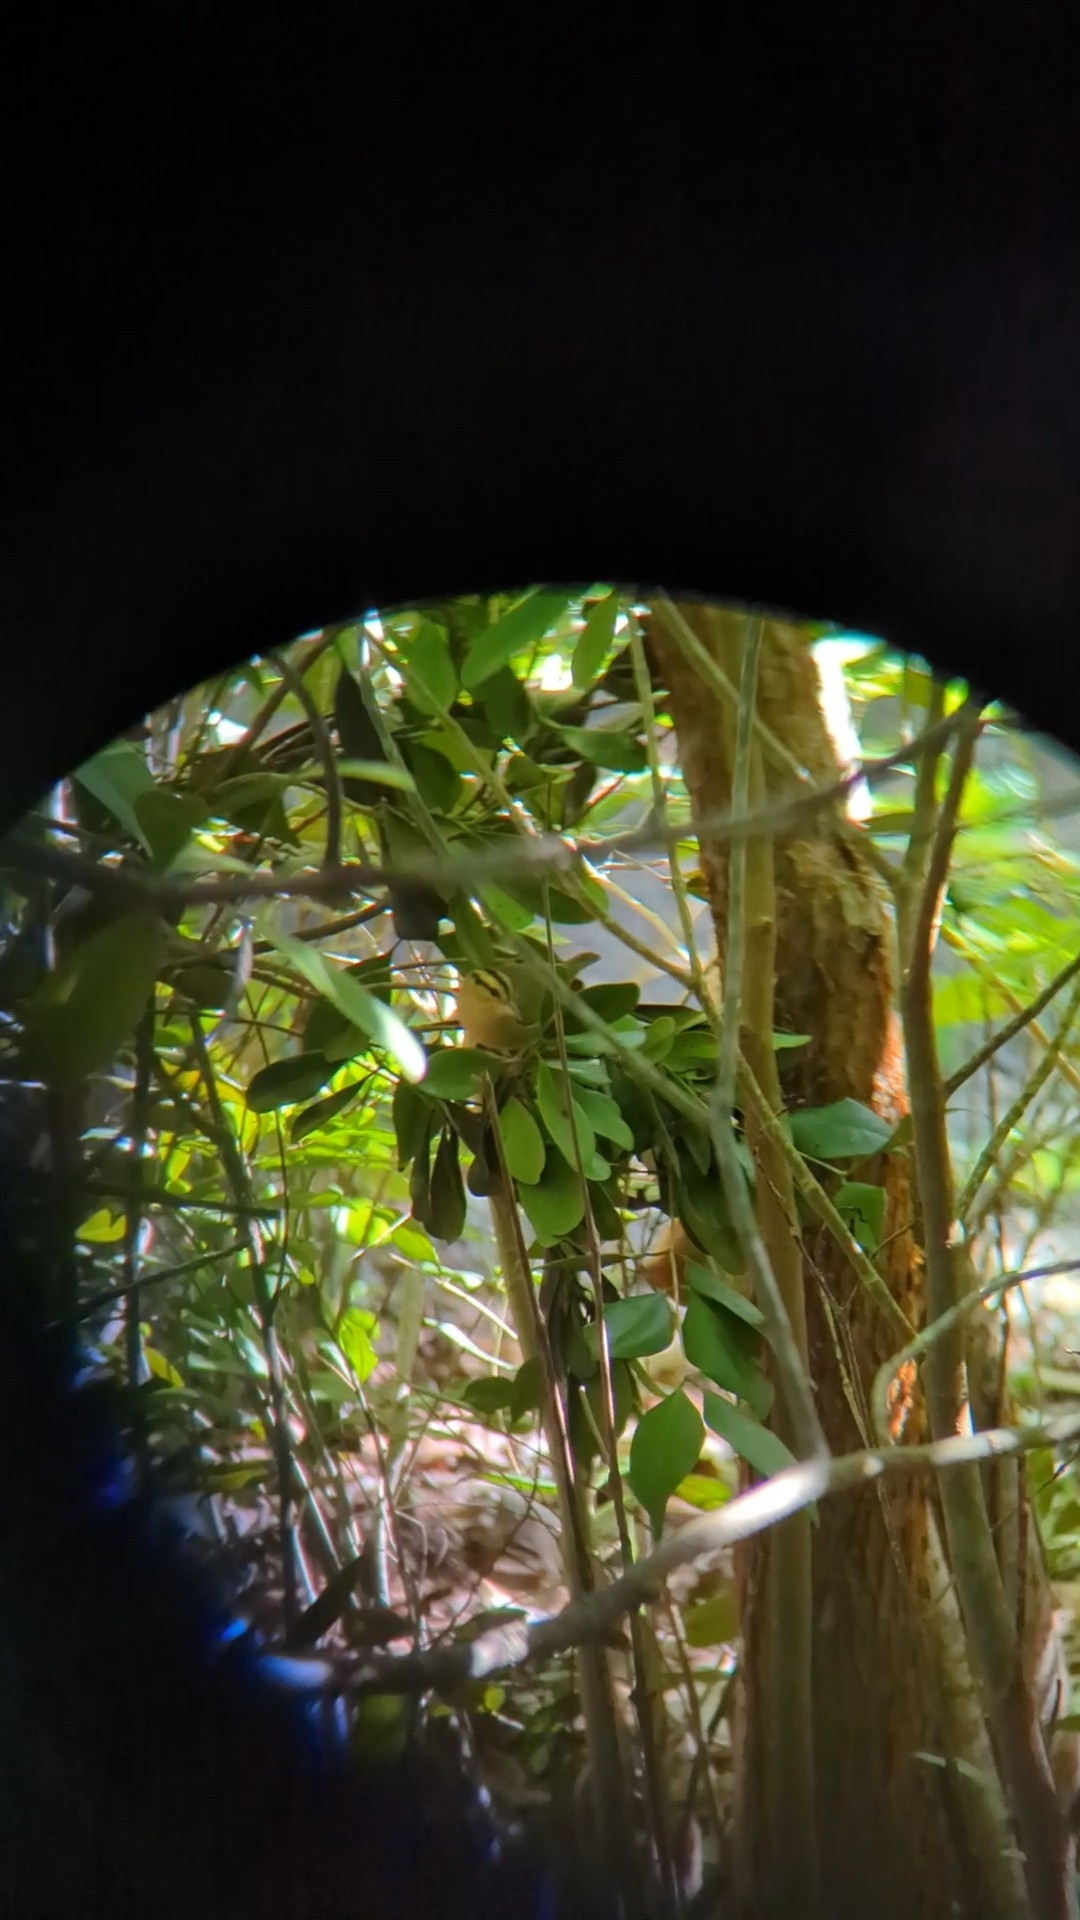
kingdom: Animalia
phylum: Chordata
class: Aves
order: Passeriformes
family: Parulidae
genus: Helmitheros
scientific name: Helmitheros vermivorum
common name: Worm-eating warbler
